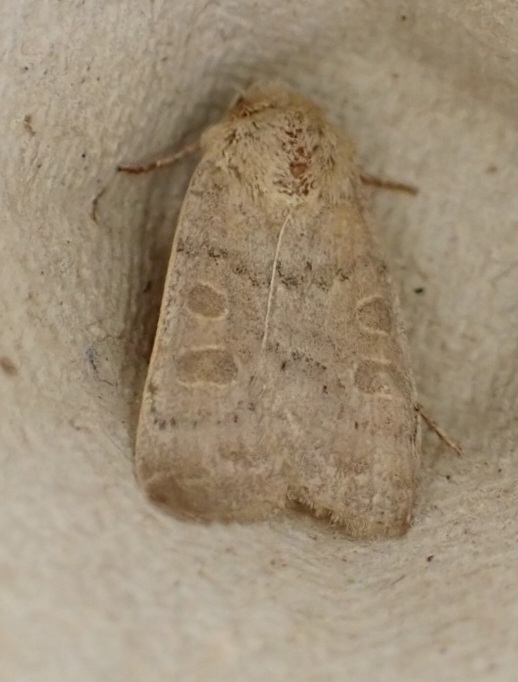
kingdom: Animalia
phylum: Arthropoda
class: Insecta
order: Lepidoptera
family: Noctuidae
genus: Hoplodrina
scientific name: Hoplodrina ambigua
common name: Vine's rustic
